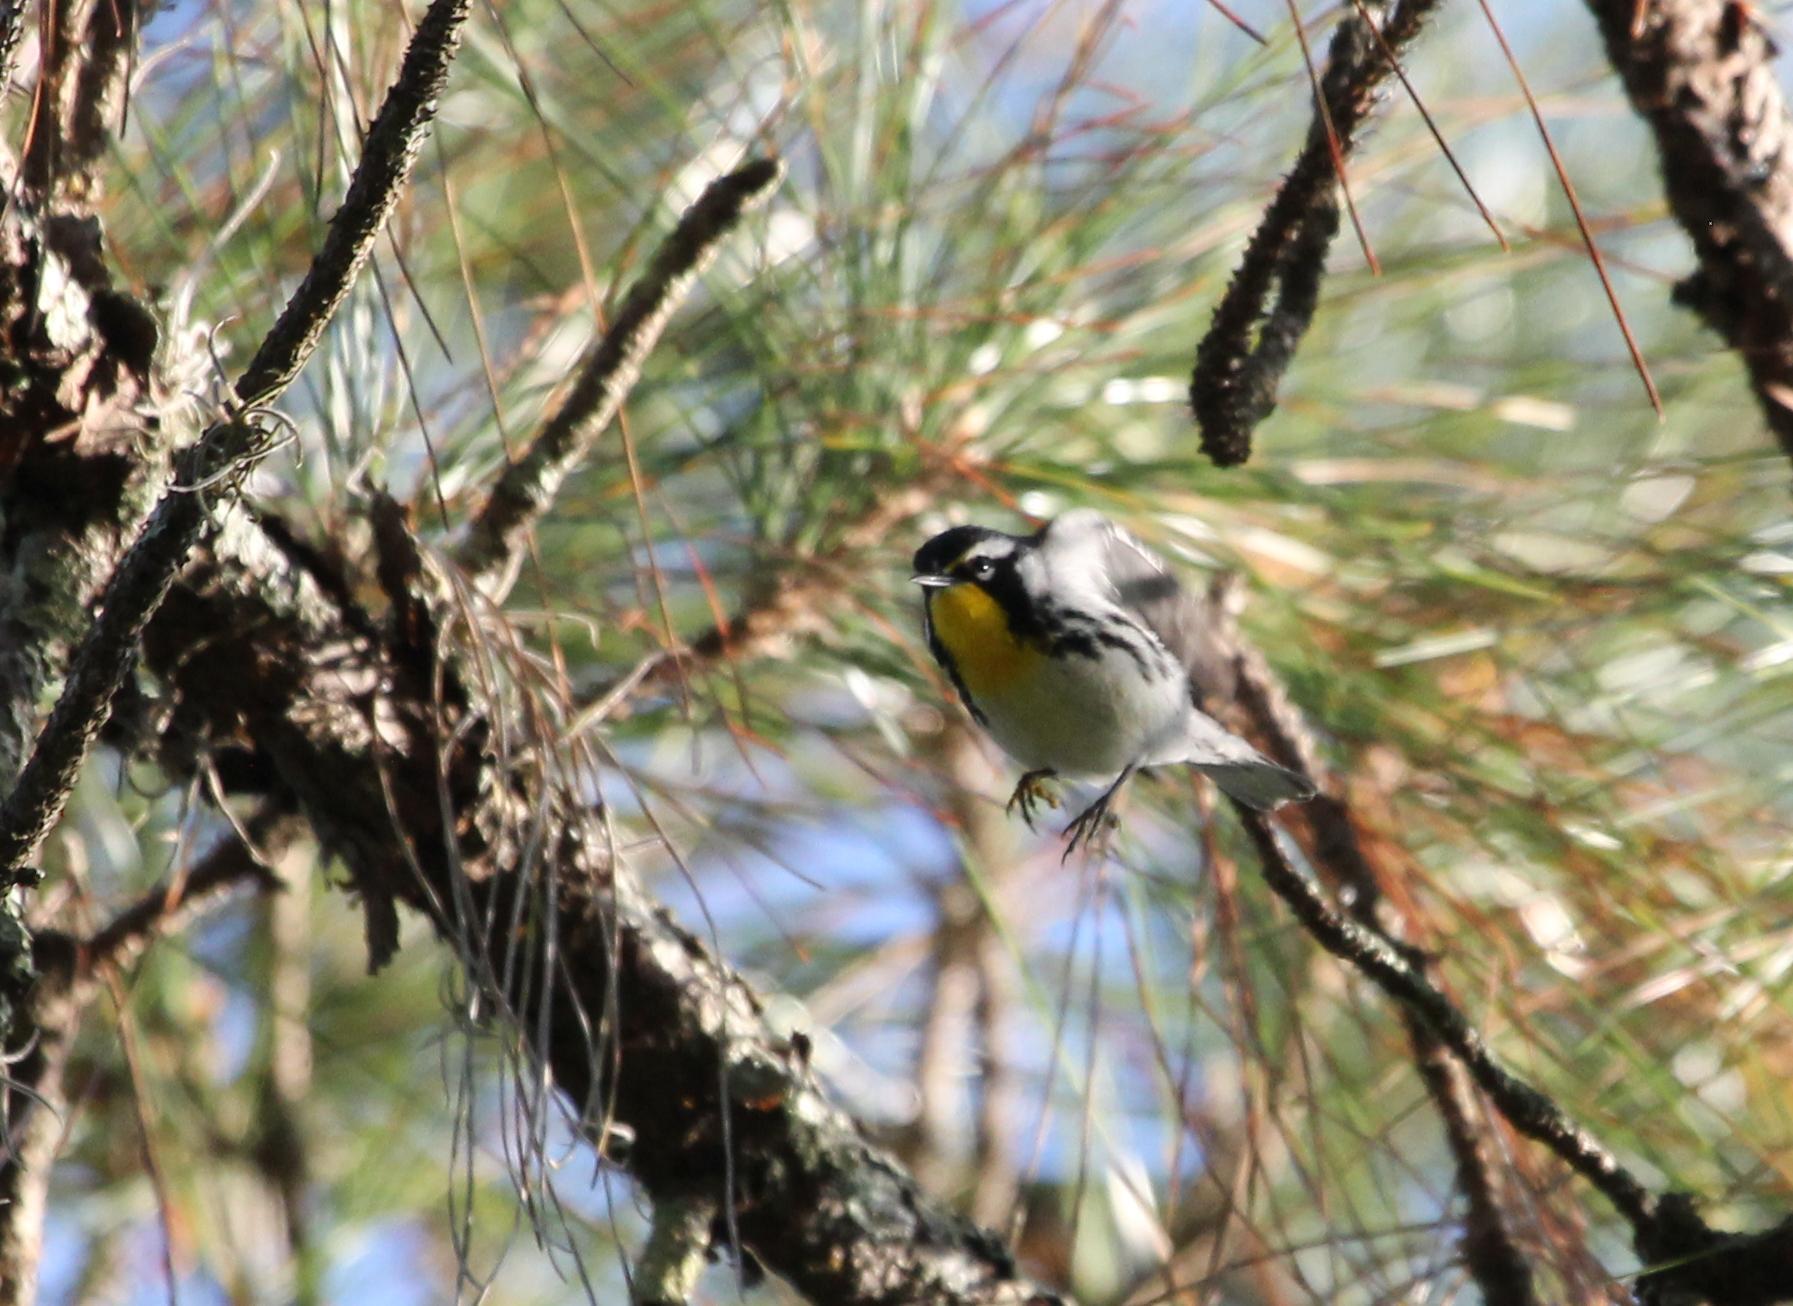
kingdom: Animalia
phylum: Chordata
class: Aves
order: Passeriformes
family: Parulidae
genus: Setophaga
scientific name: Setophaga dominica
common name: Yellow-throated warbler
